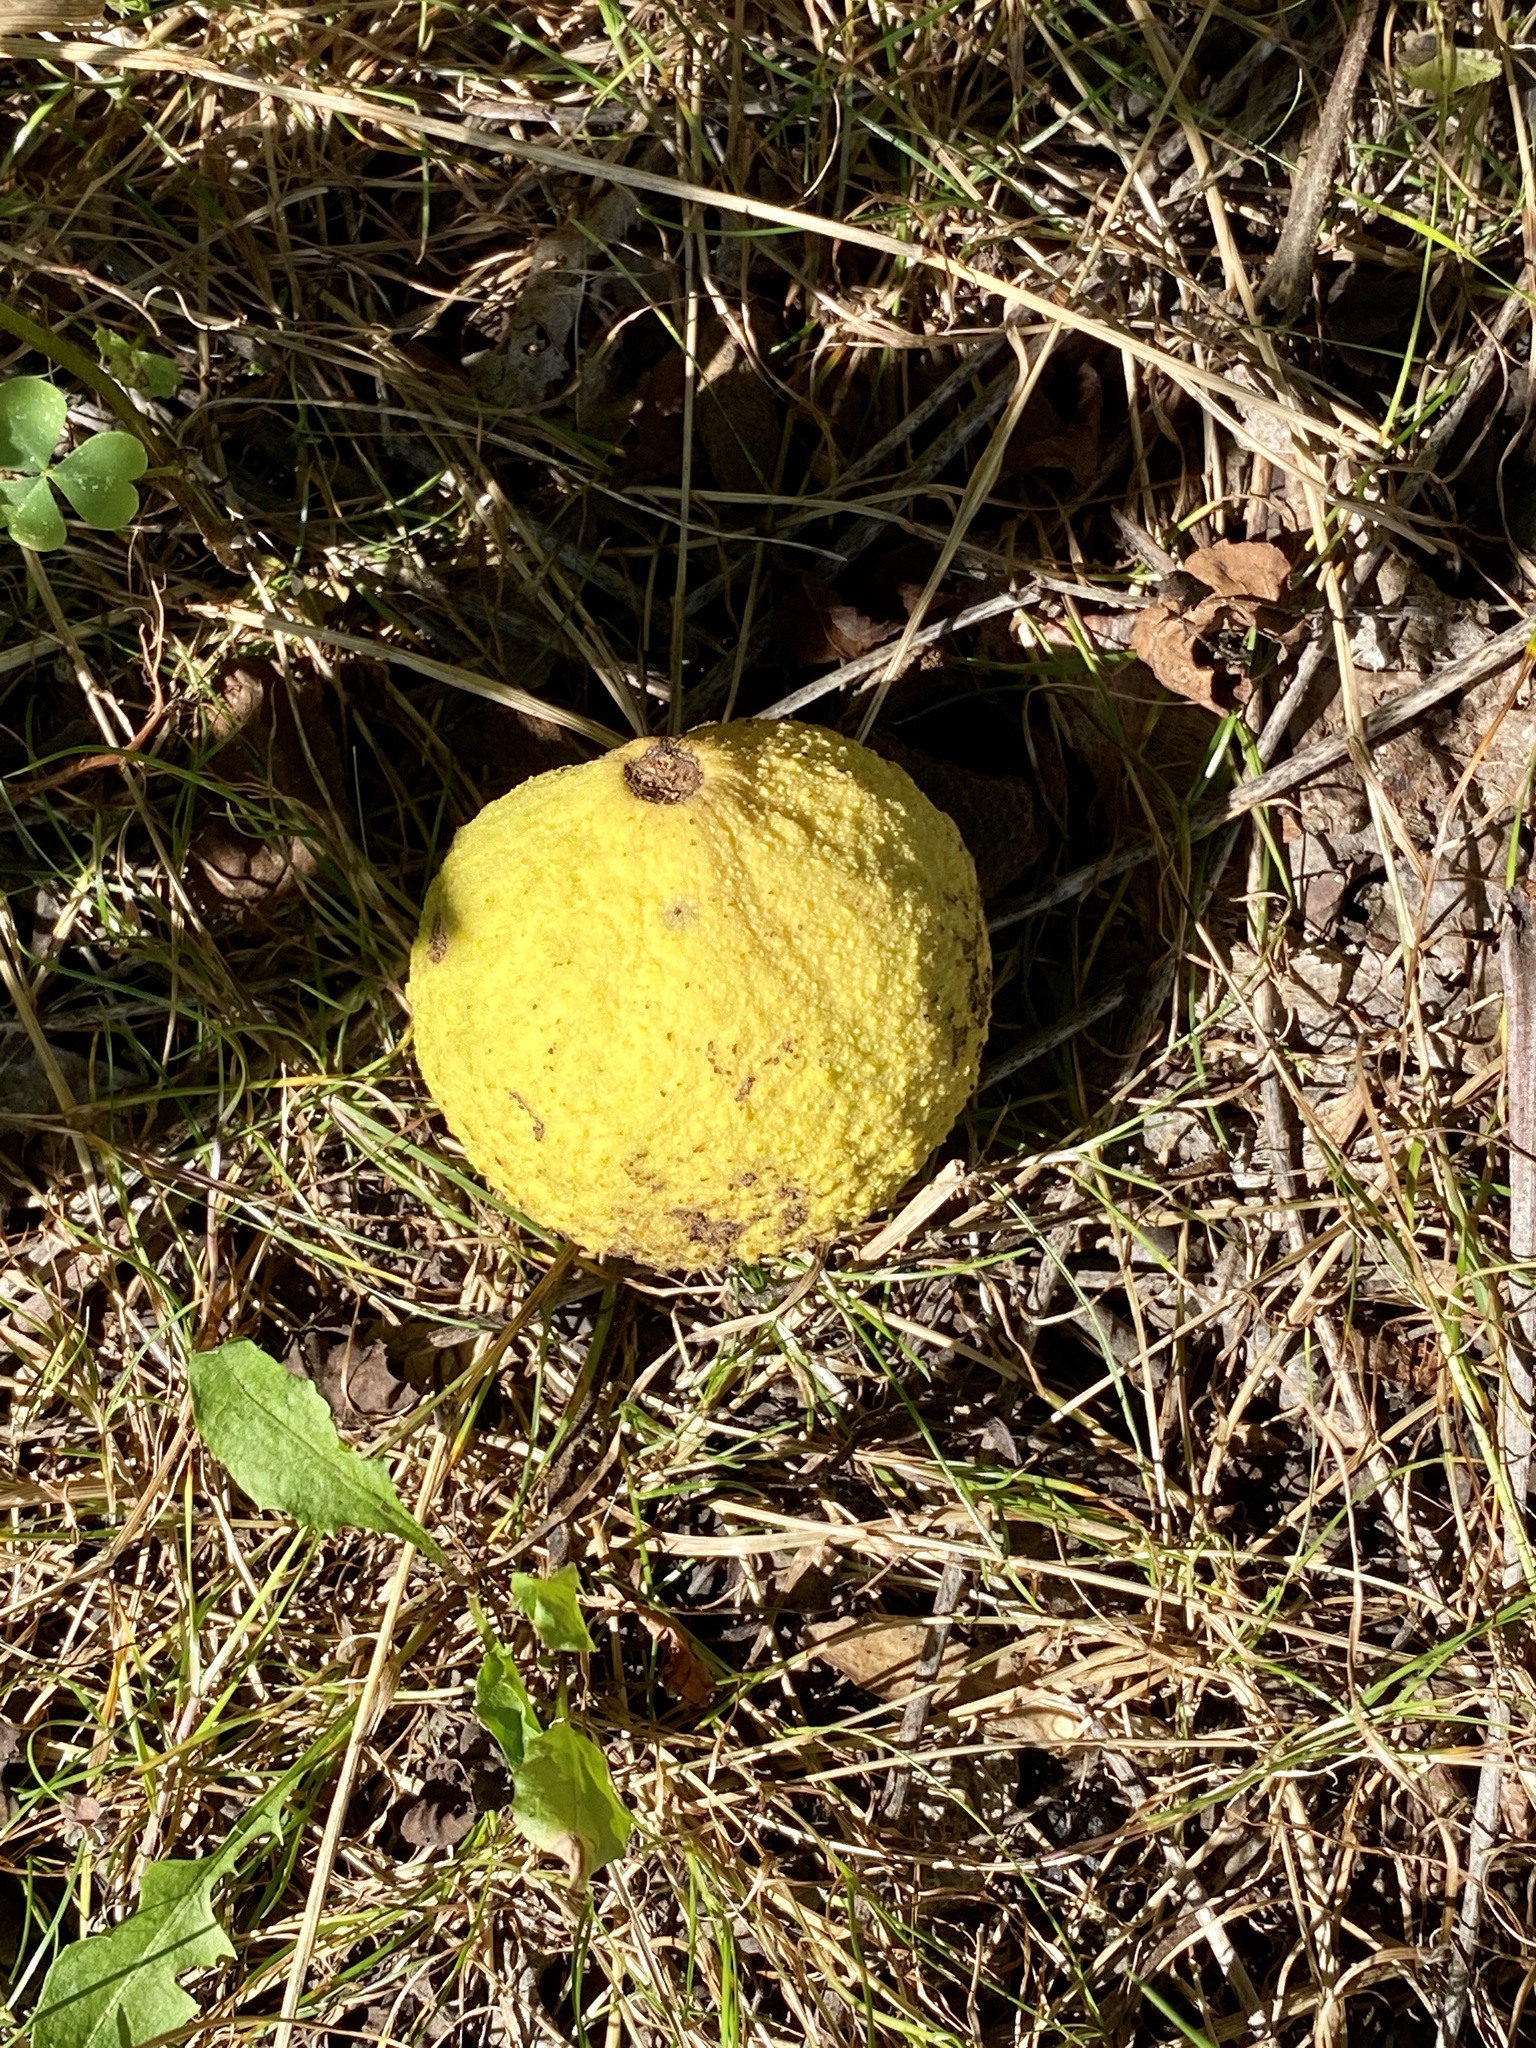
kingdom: Plantae
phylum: Tracheophyta
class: Magnoliopsida
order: Fagales
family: Juglandaceae
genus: Juglans
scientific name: Juglans nigra
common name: Black walnut
